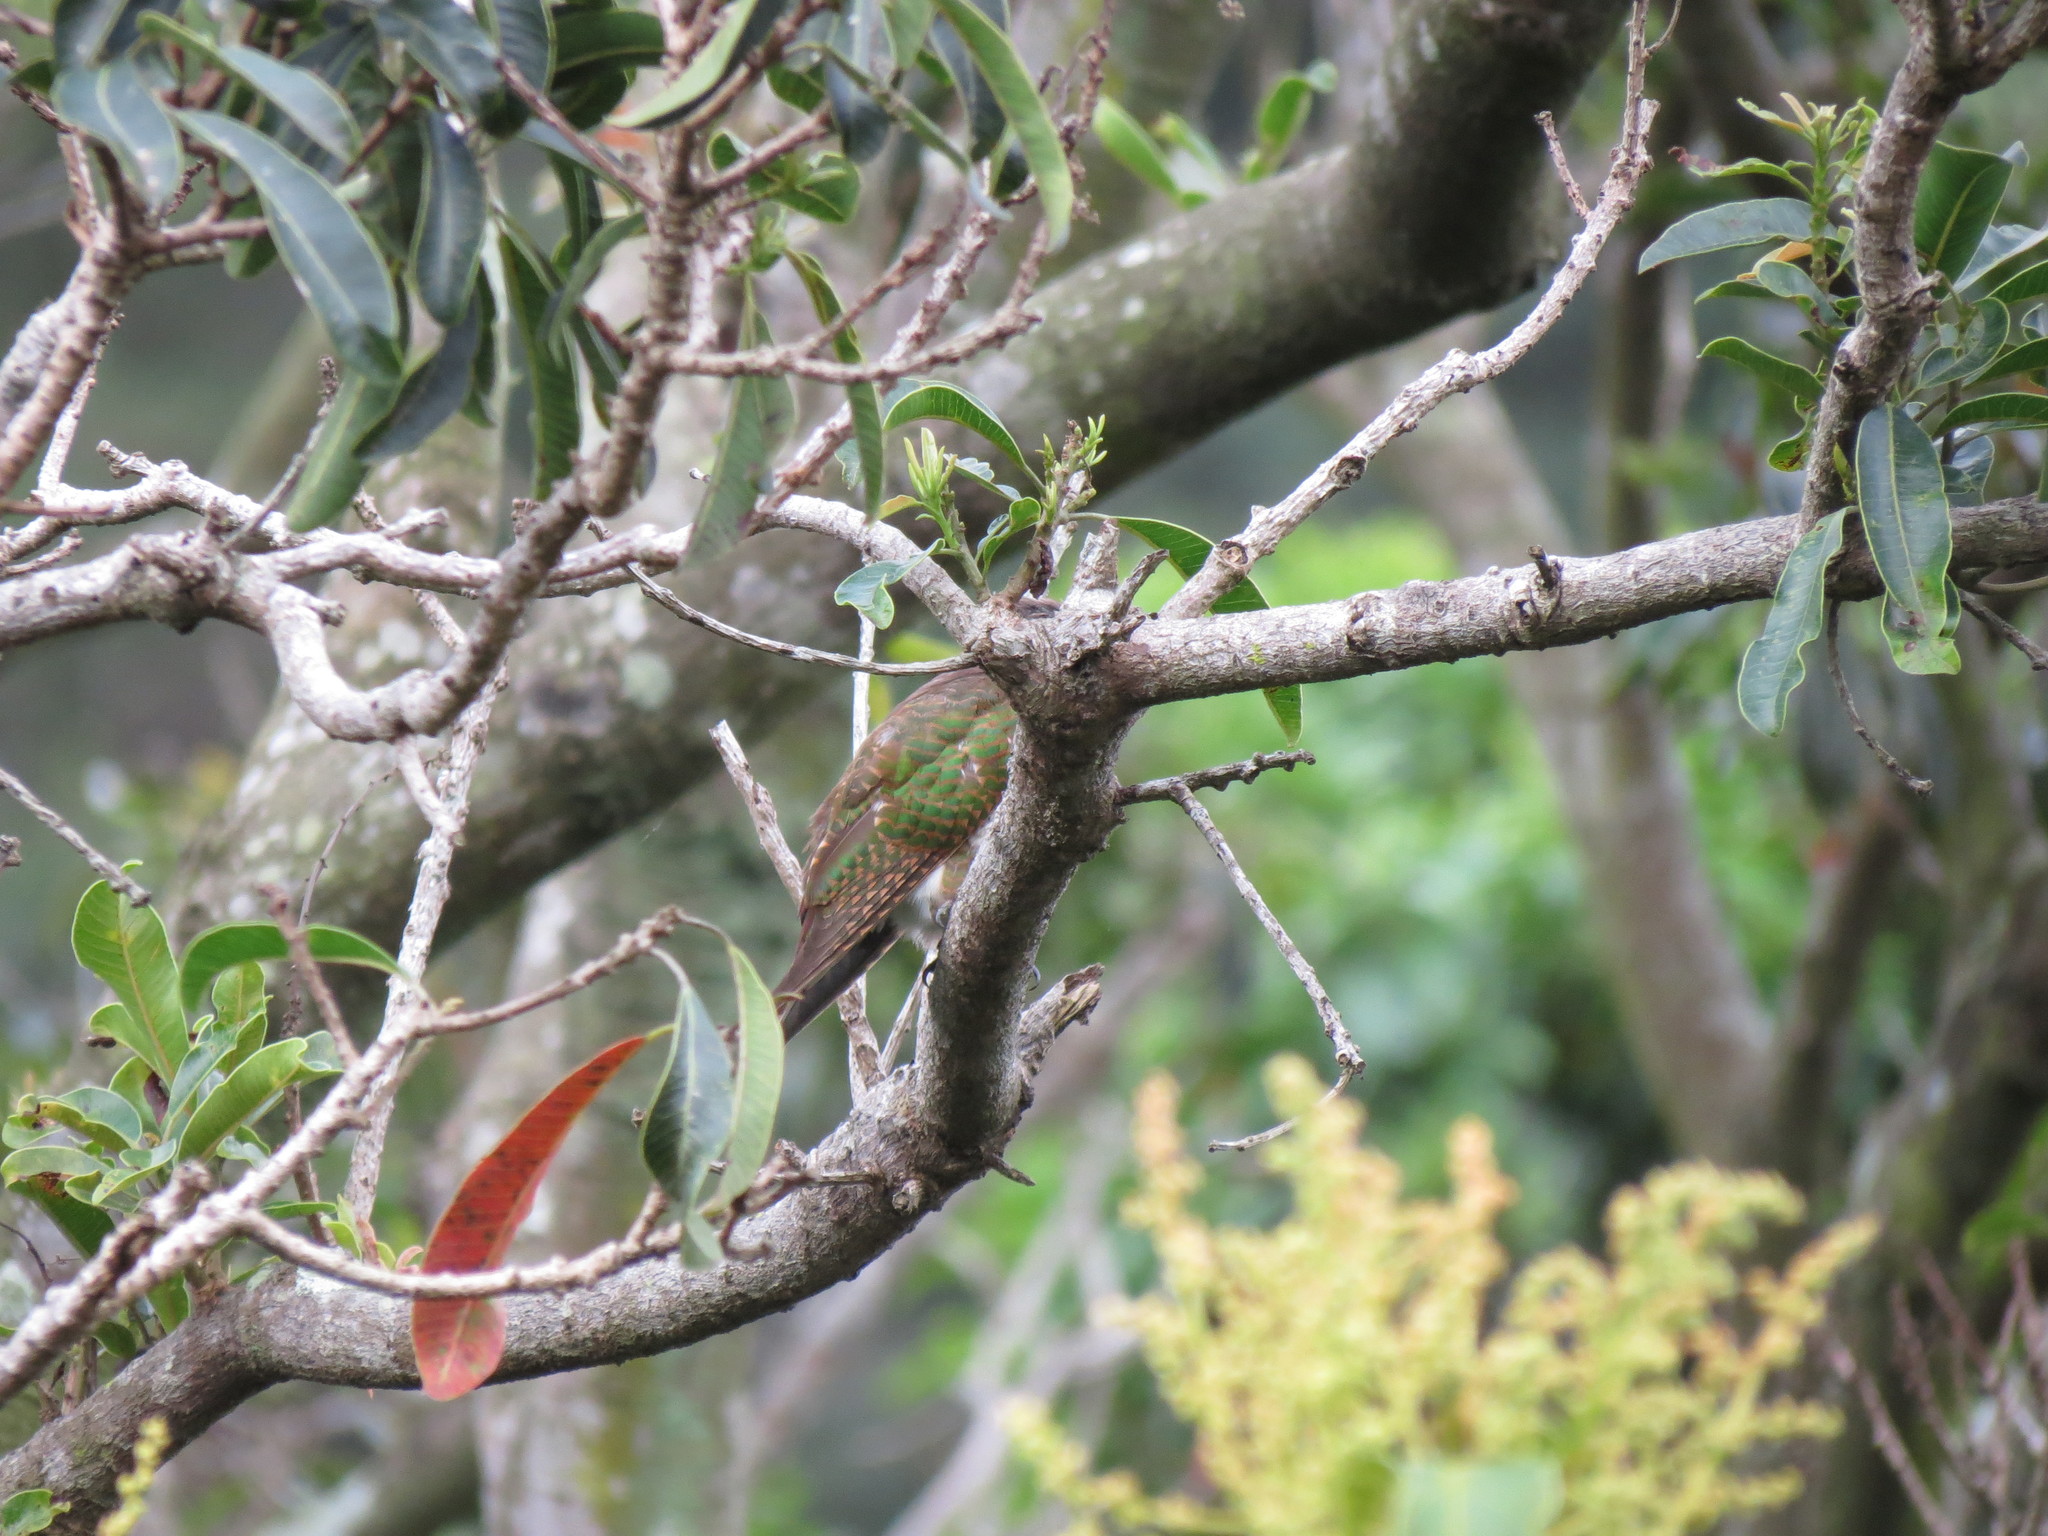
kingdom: Animalia
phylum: Chordata
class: Aves
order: Cuculiformes
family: Cuculidae
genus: Chrysococcyx
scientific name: Chrysococcyx klaas
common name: Klaas's cuckoo
